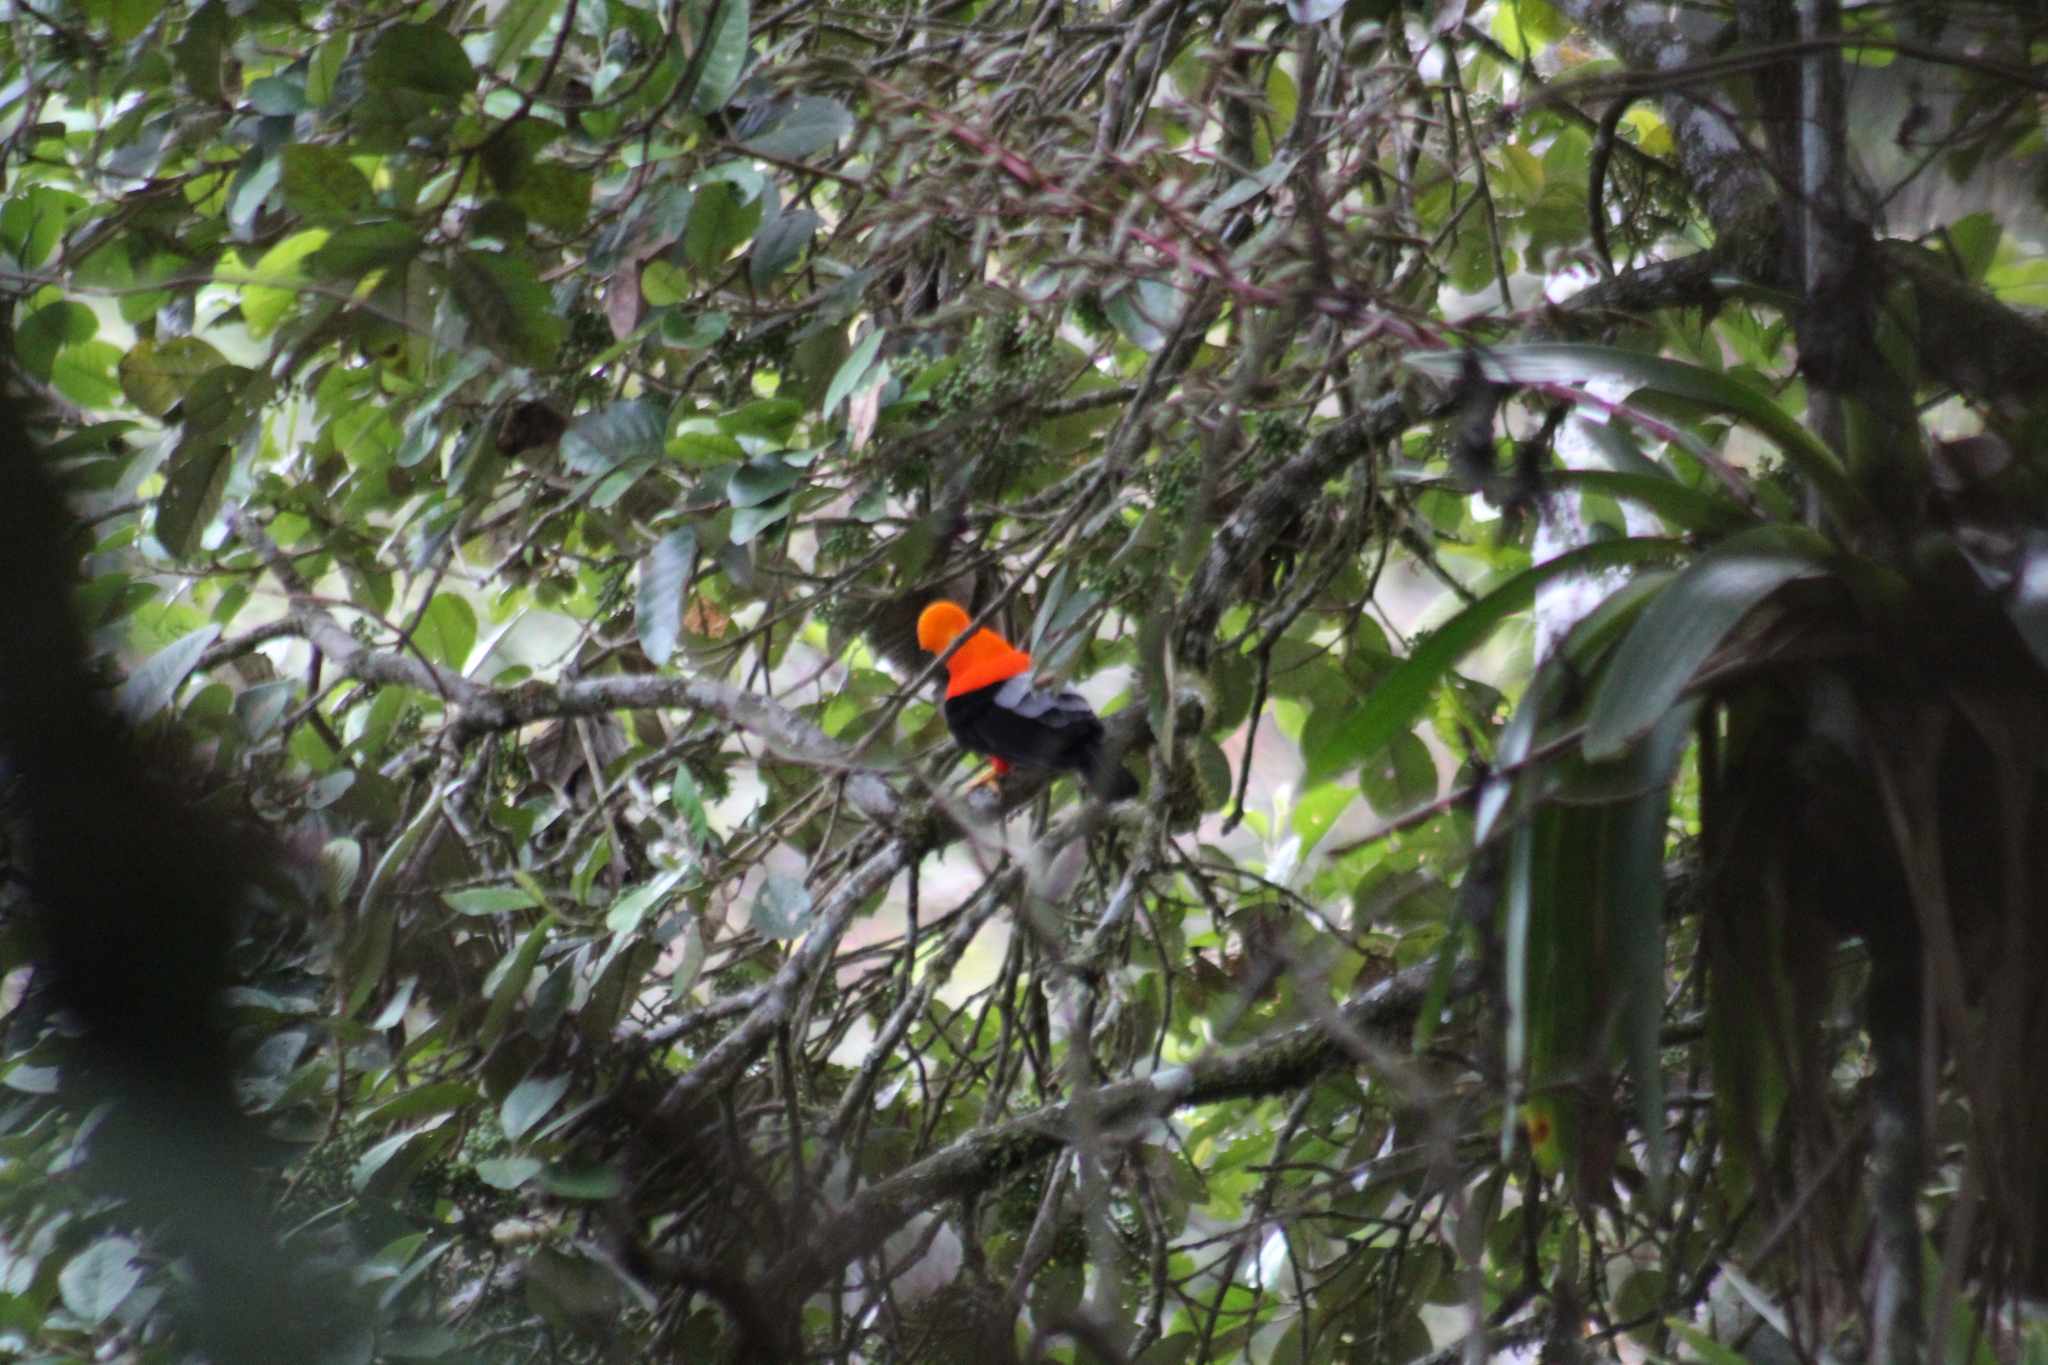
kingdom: Animalia
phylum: Chordata
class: Aves
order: Passeriformes
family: Cotingidae
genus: Rupicola
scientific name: Rupicola peruvianus
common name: Andean cock-of-the-rock
